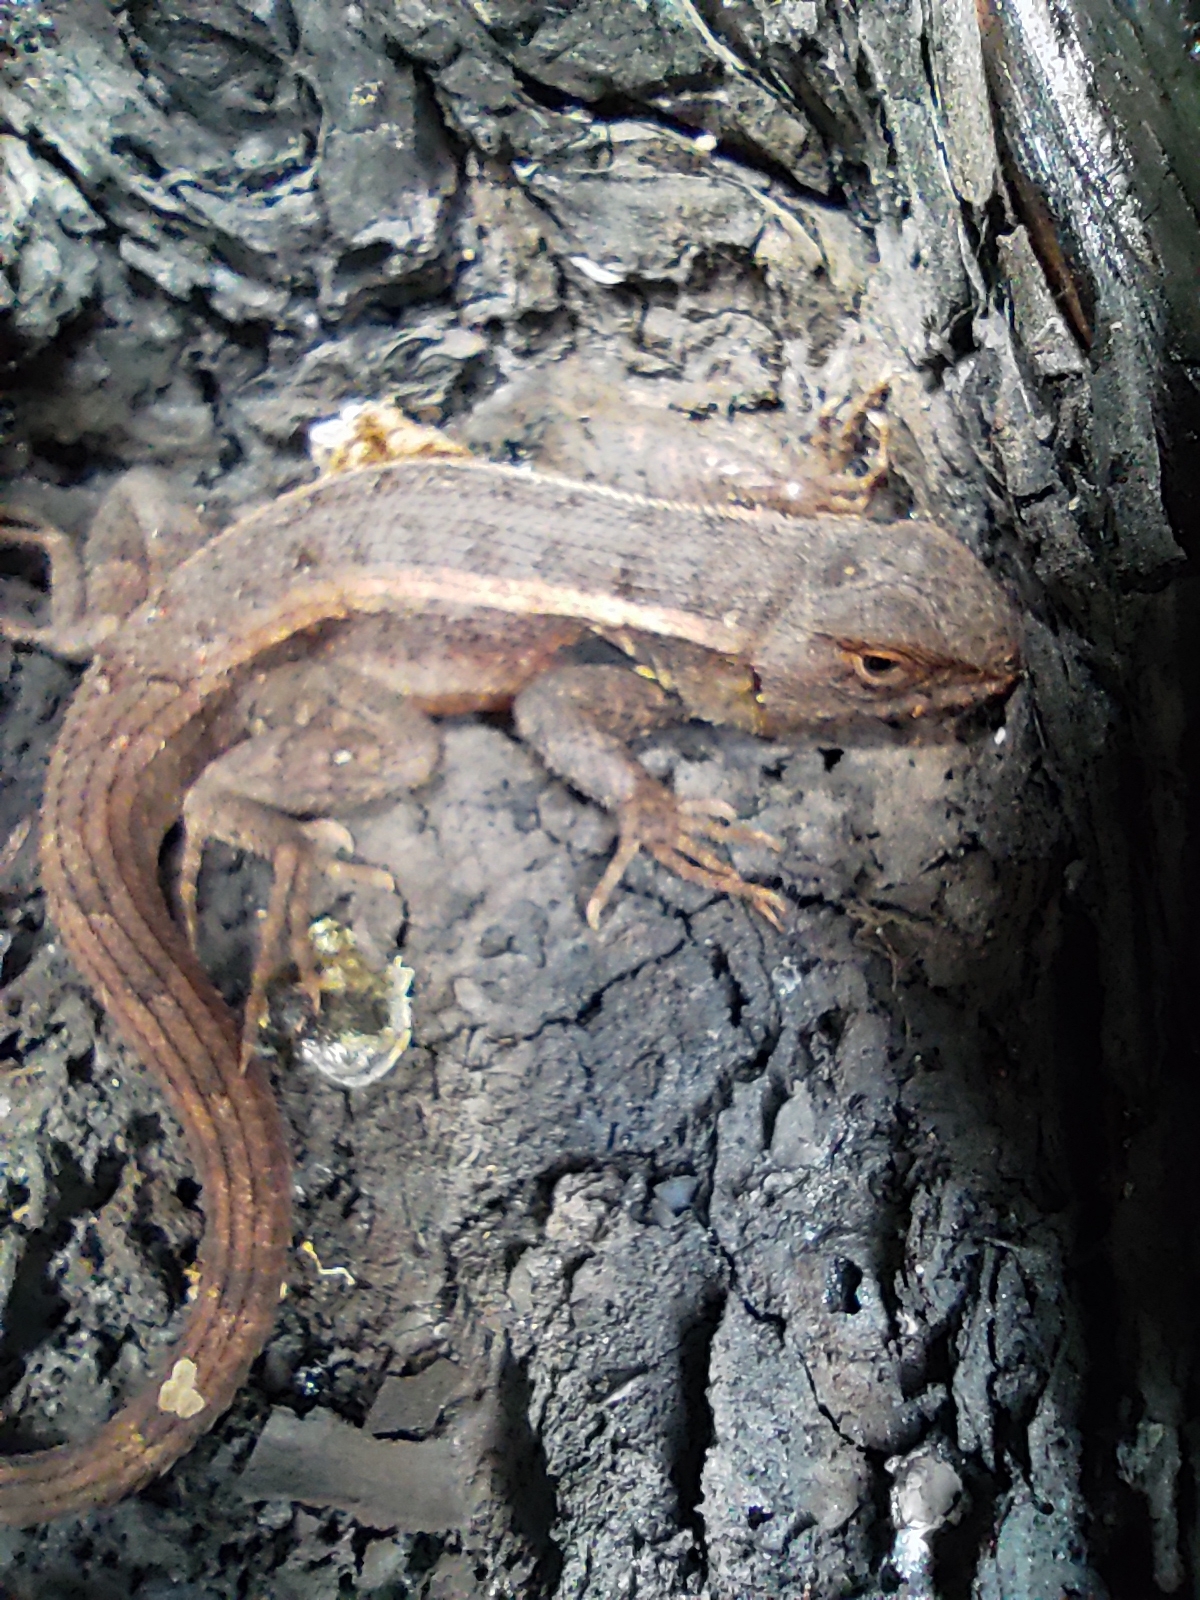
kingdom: Animalia
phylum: Chordata
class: Squamata
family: Phrynosomatidae
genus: Sceloporus
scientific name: Sceloporus variabilis
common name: Rosebelly lizard
